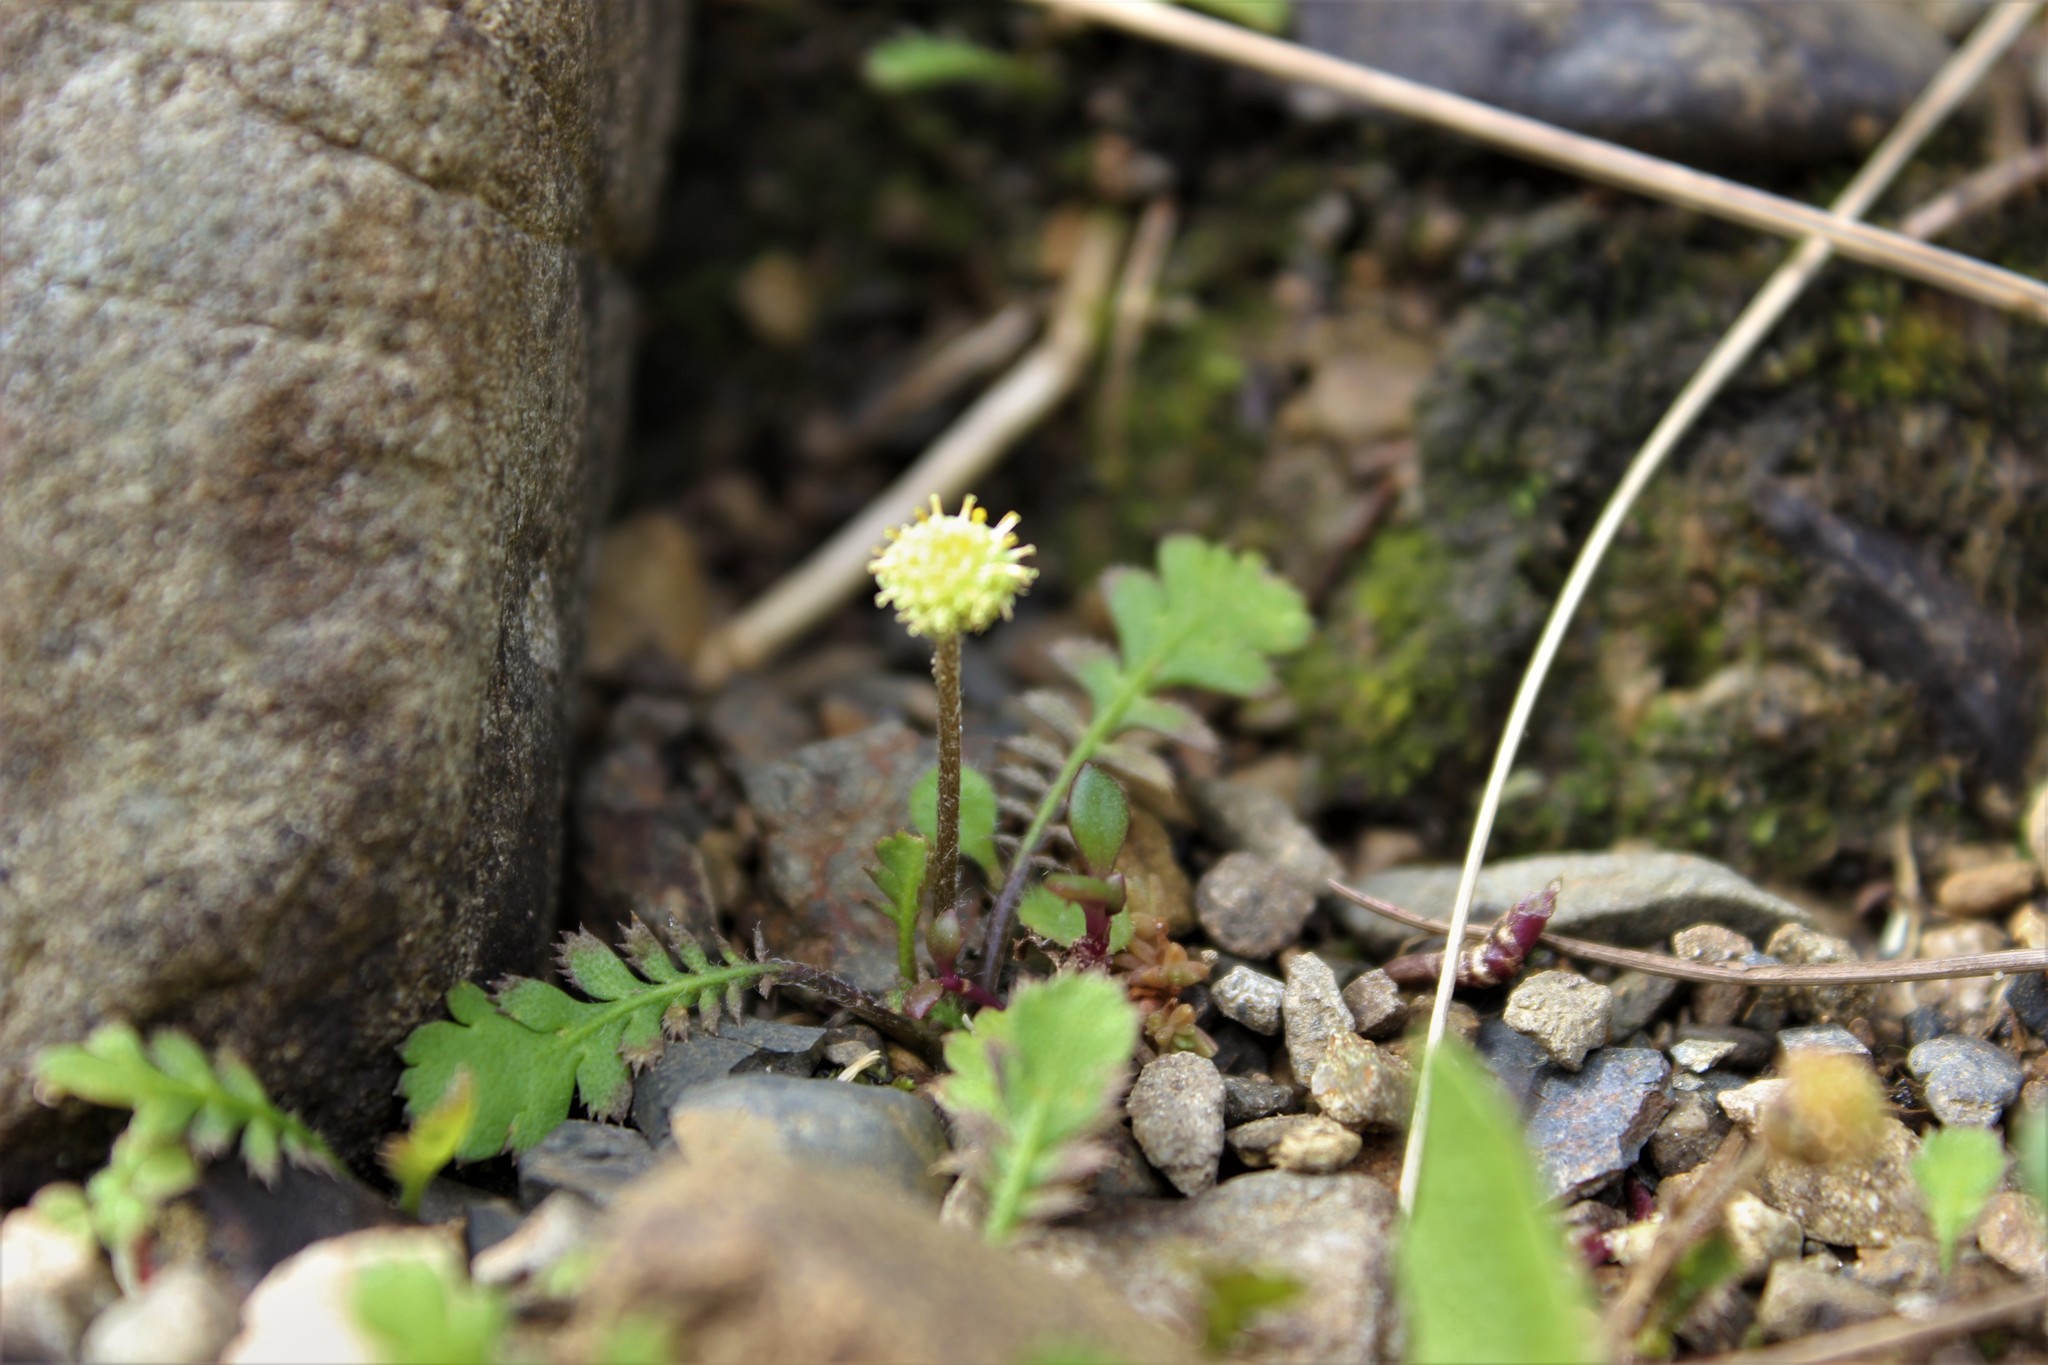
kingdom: Plantae
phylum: Tracheophyta
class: Magnoliopsida
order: Asterales
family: Asteraceae
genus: Leptinella
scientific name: Leptinella squalida
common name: New zealand brass-buttons
